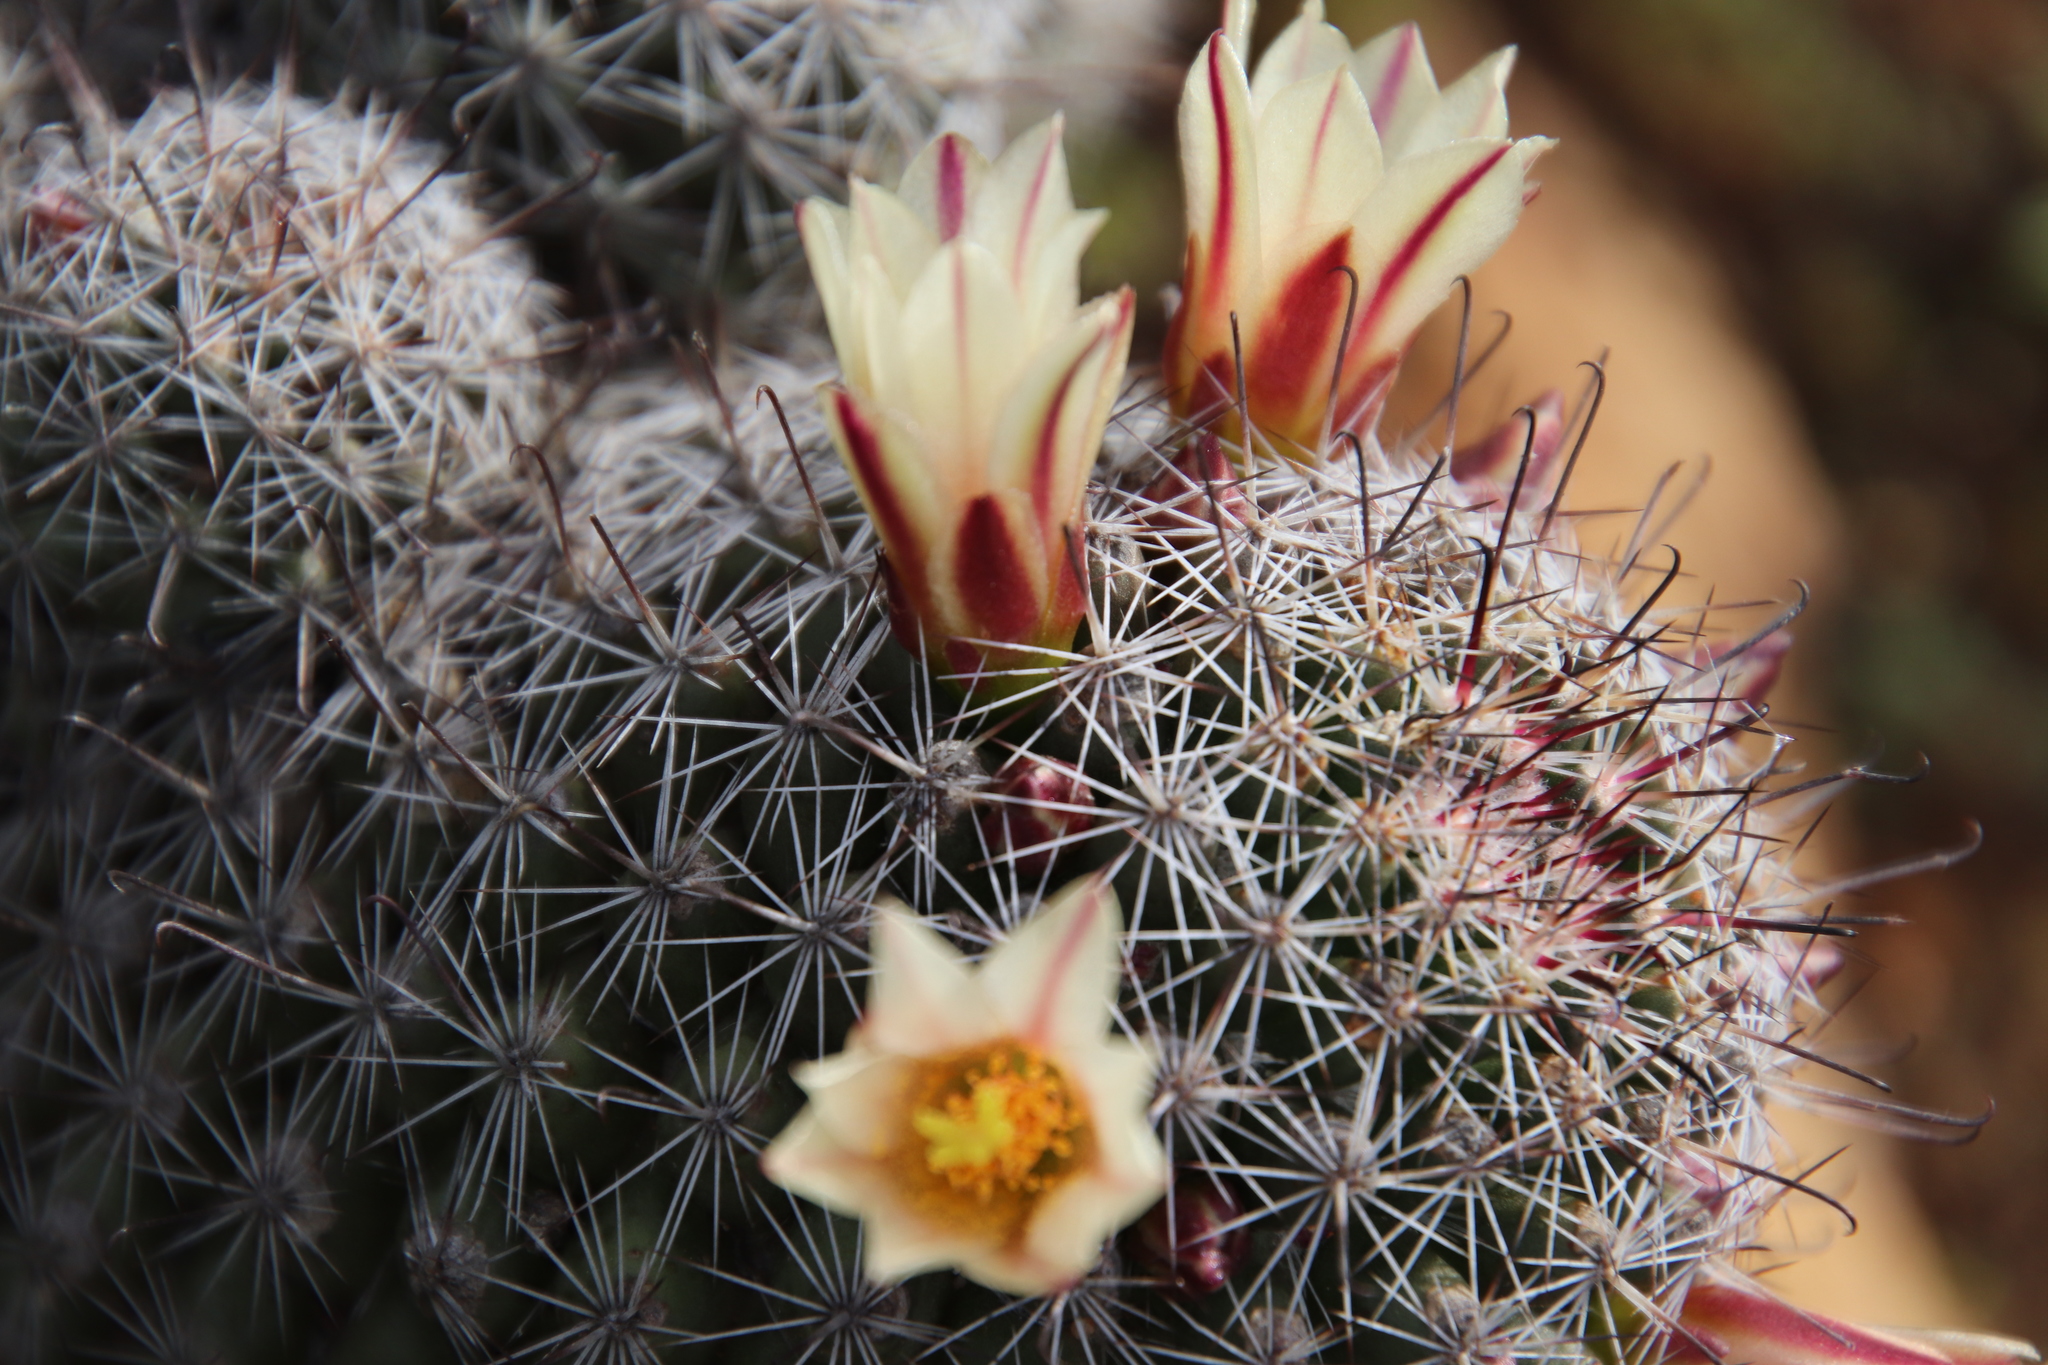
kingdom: Plantae
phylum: Tracheophyta
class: Magnoliopsida
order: Caryophyllales
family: Cactaceae
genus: Cochemiea
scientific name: Cochemiea dioica
